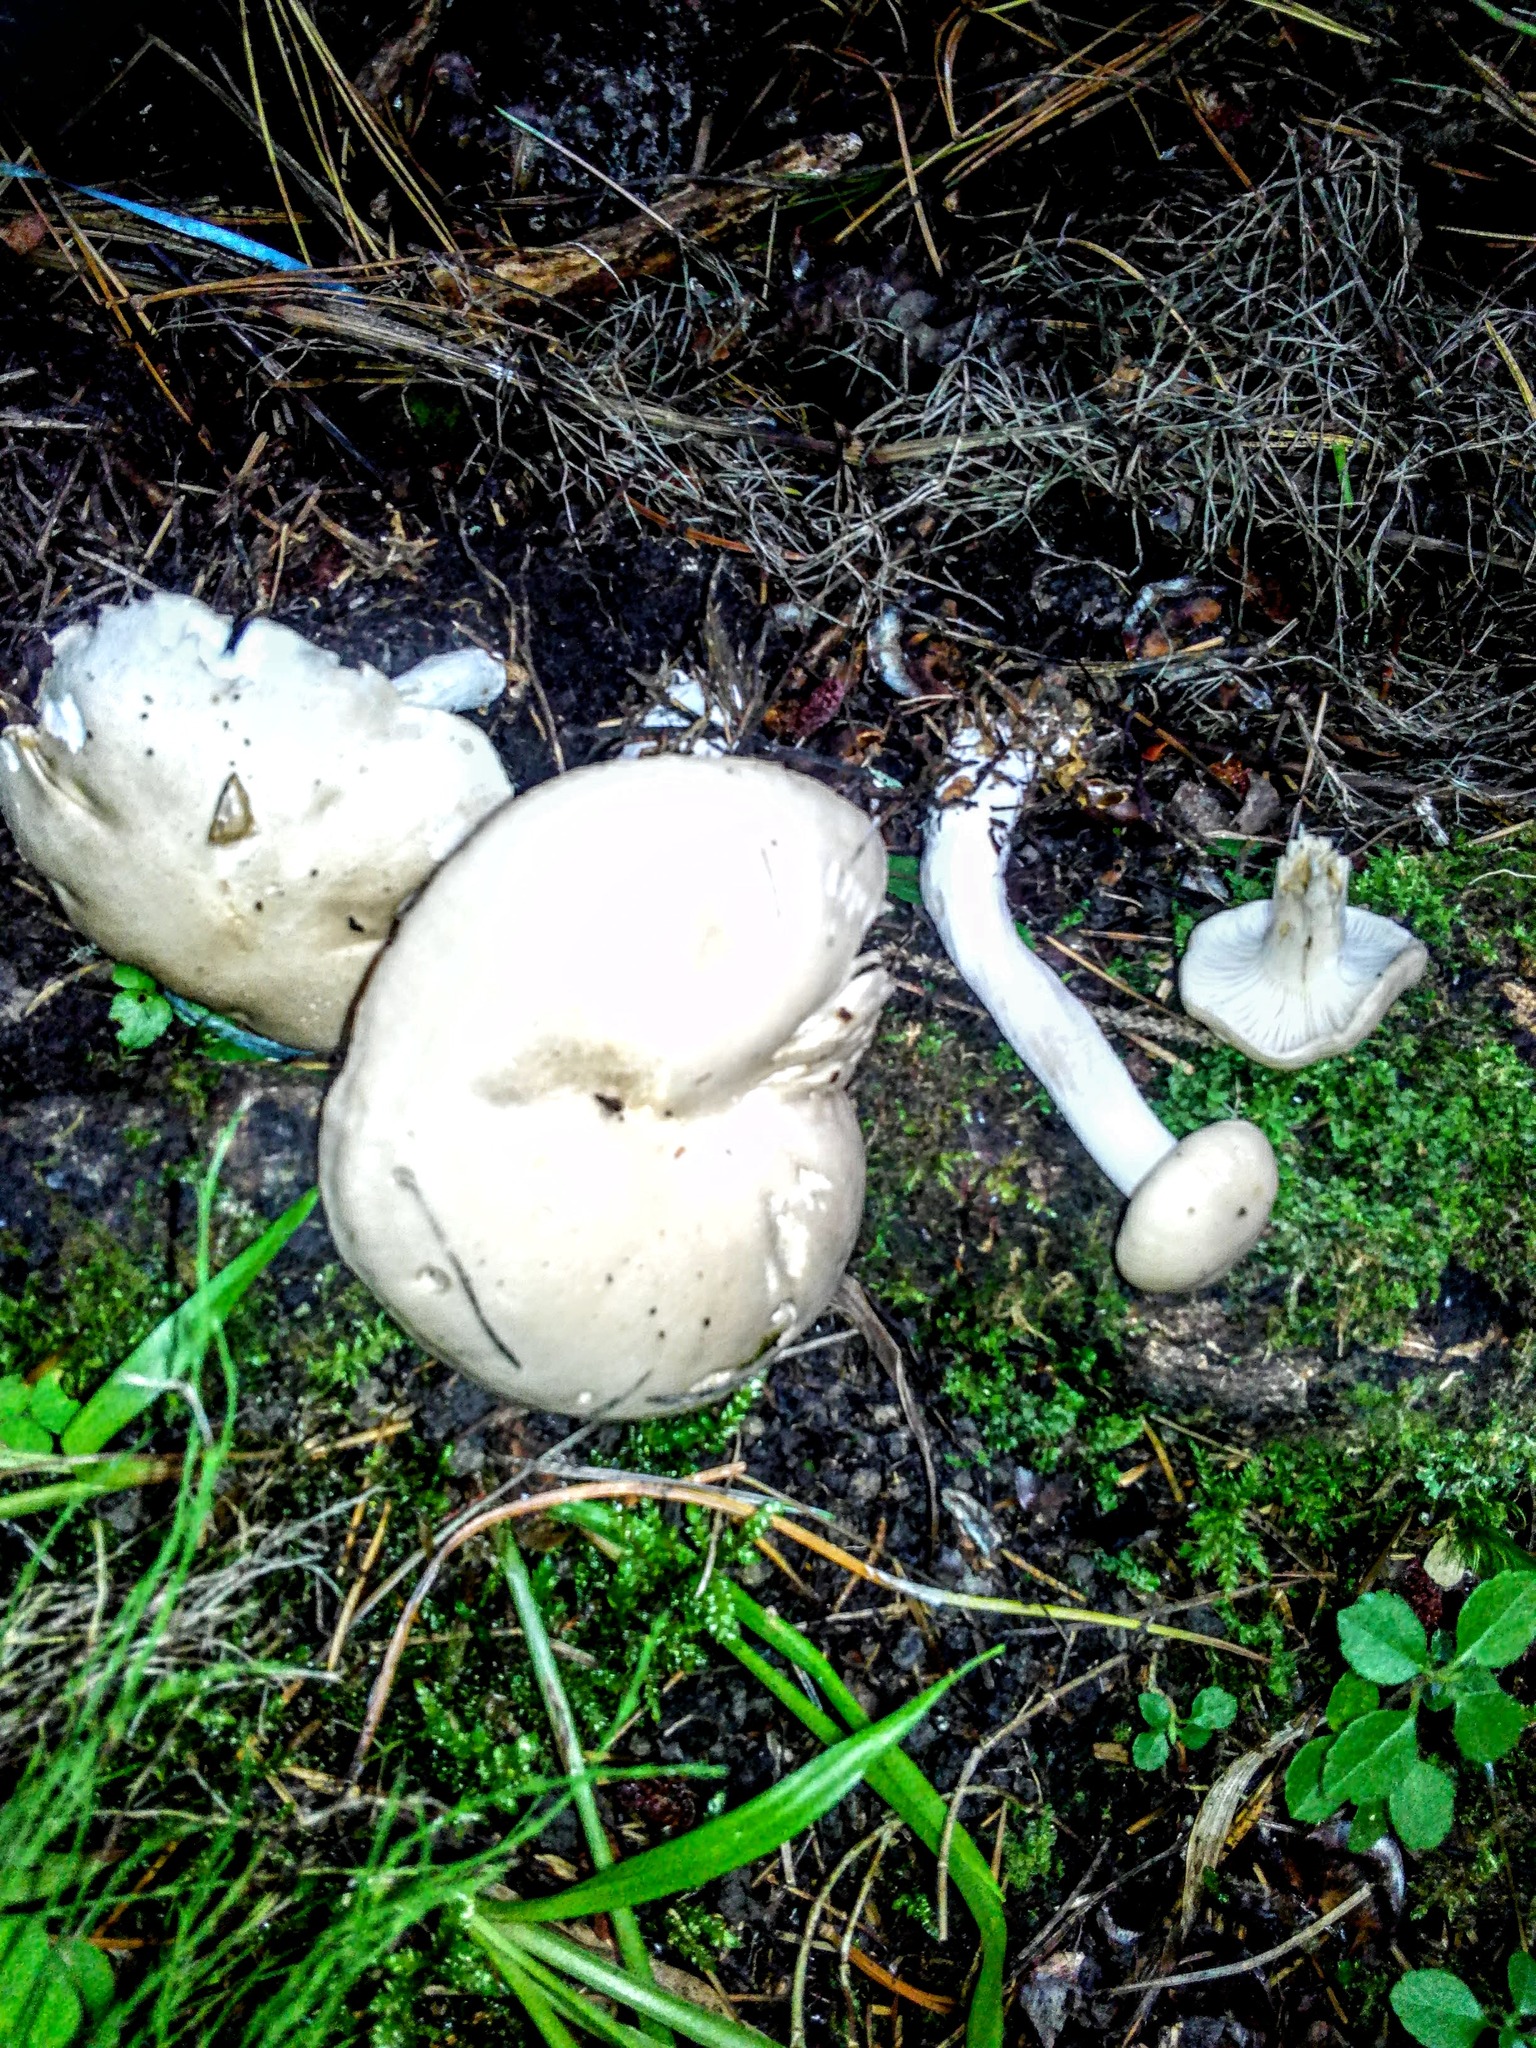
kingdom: Fungi
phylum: Basidiomycota
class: Agaricomycetes
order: Agaricales
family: Hygrophoraceae
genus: Hygrophorus
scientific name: Hygrophorus agathosmus
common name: Almond woodwax
